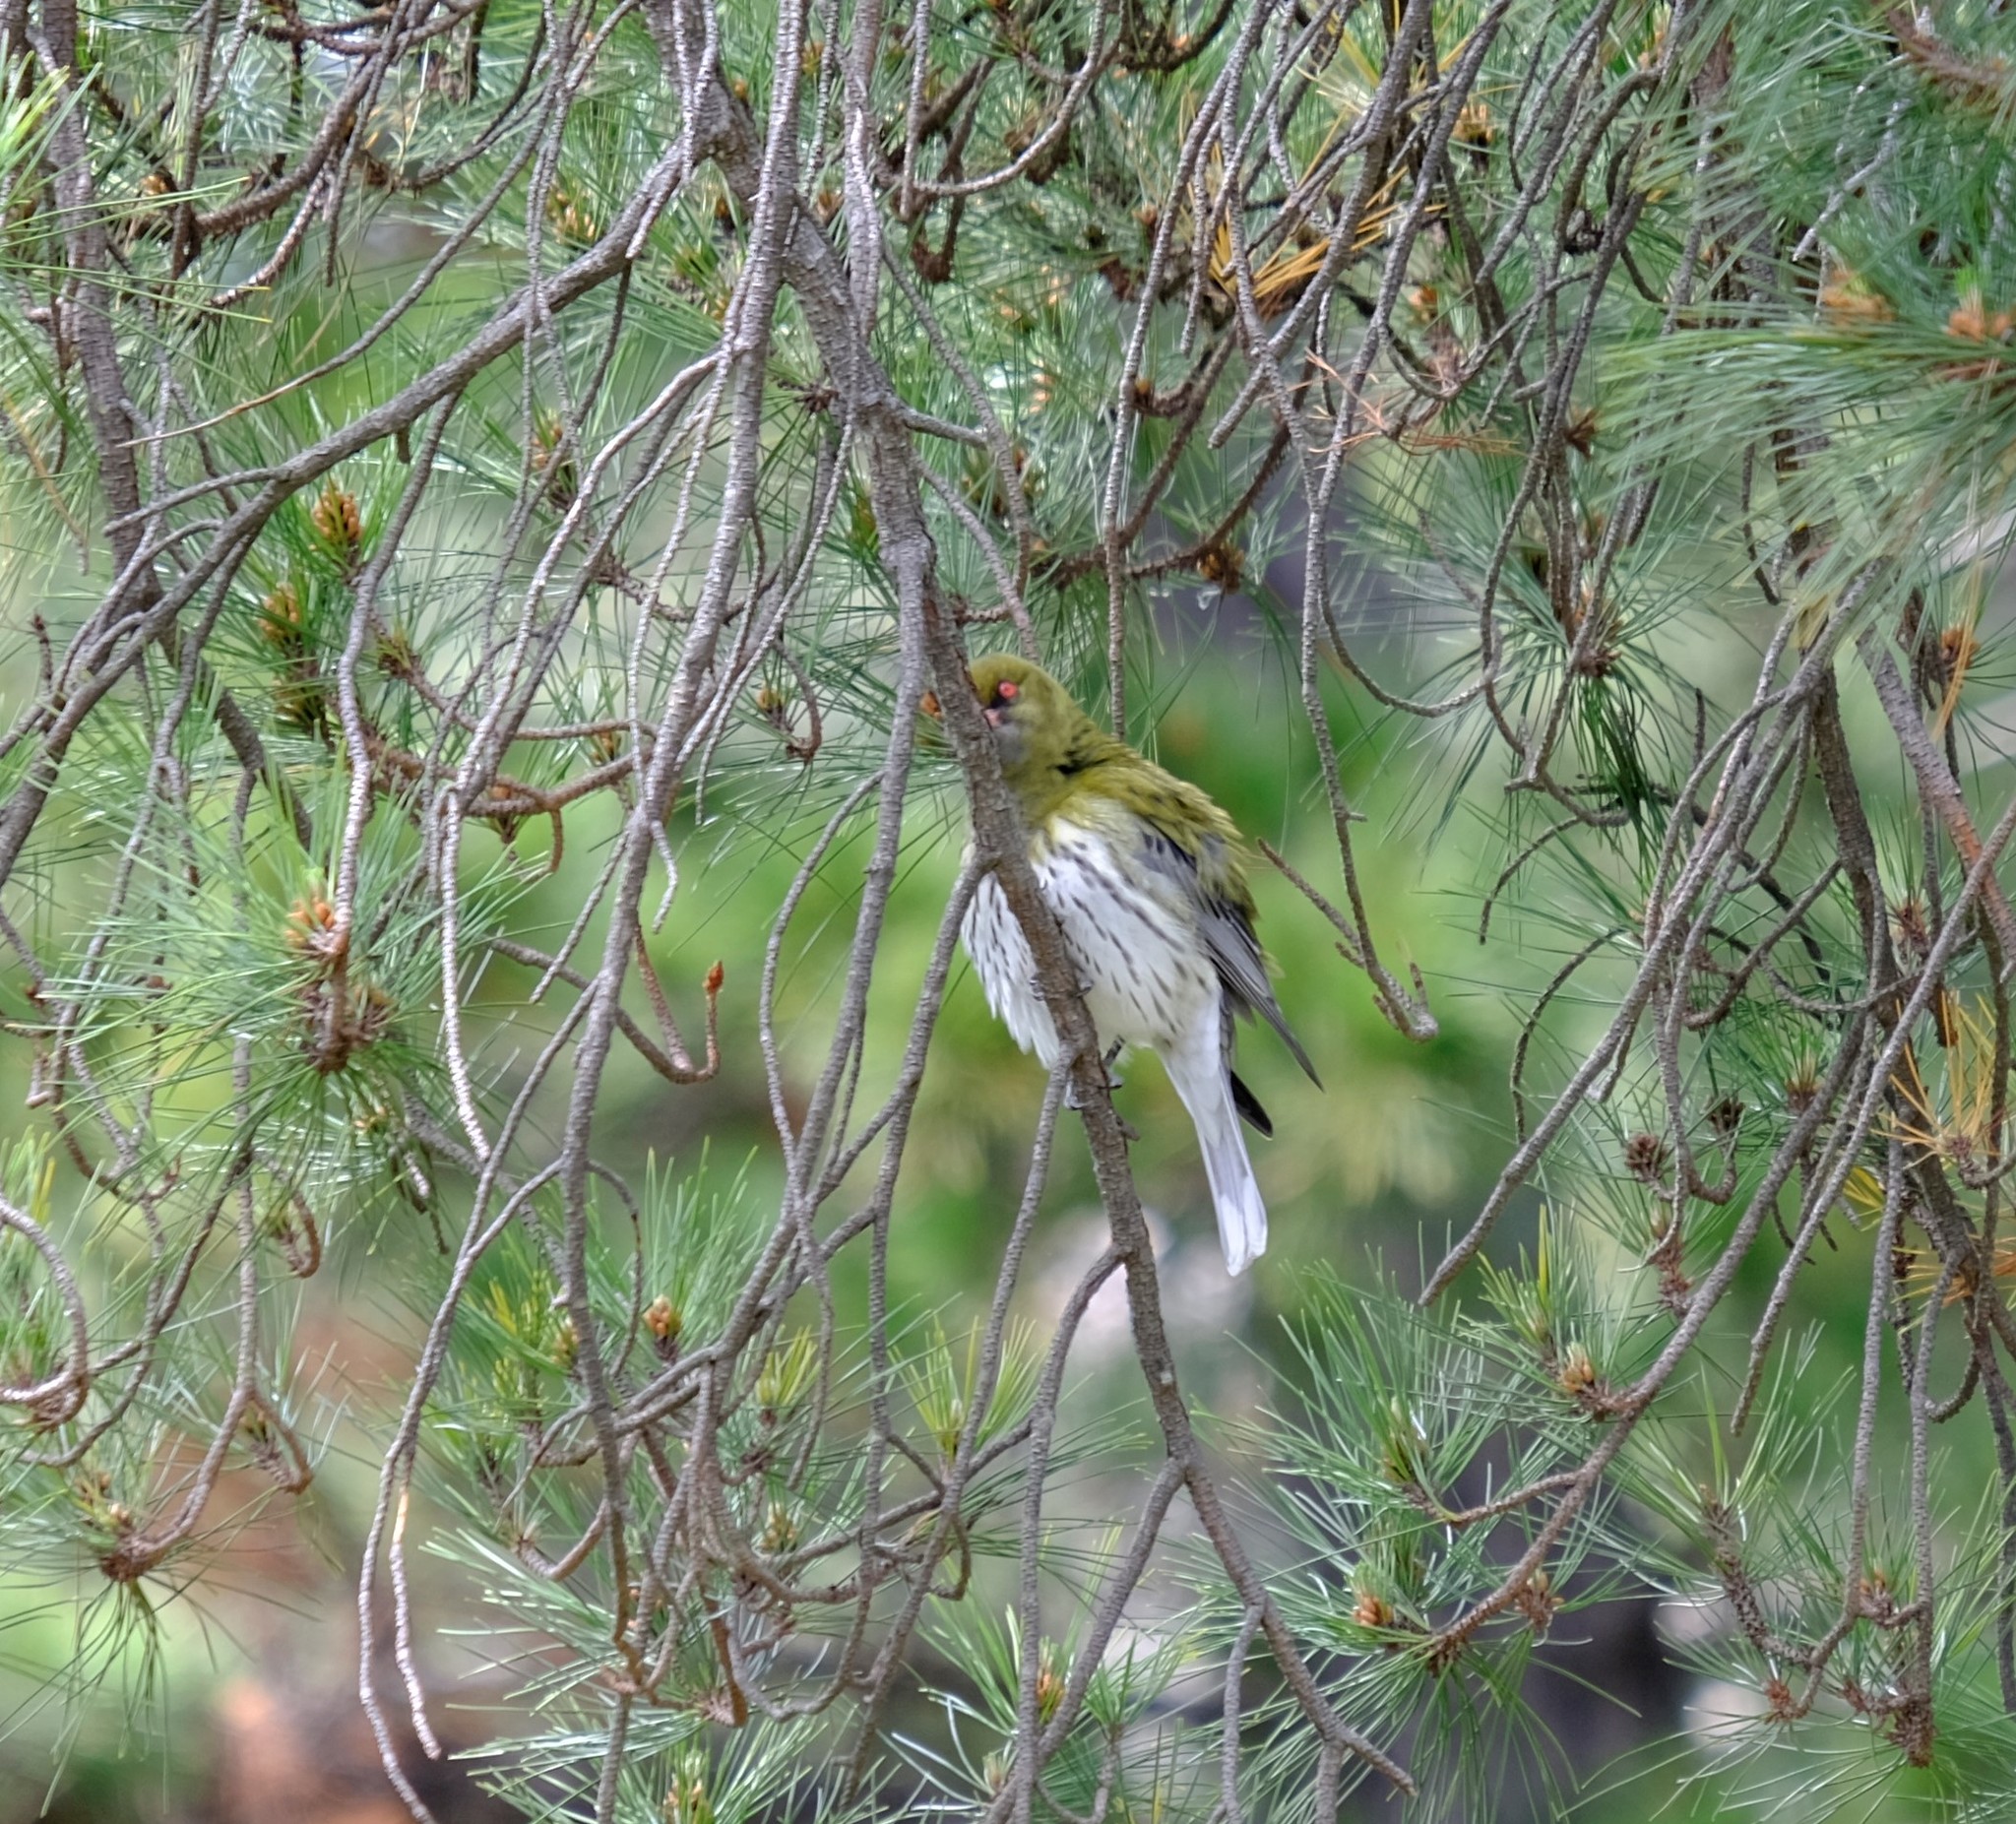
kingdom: Animalia
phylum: Chordata
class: Aves
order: Passeriformes
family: Oriolidae
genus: Oriolus
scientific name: Oriolus sagittatus
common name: Olive-backed oriole
